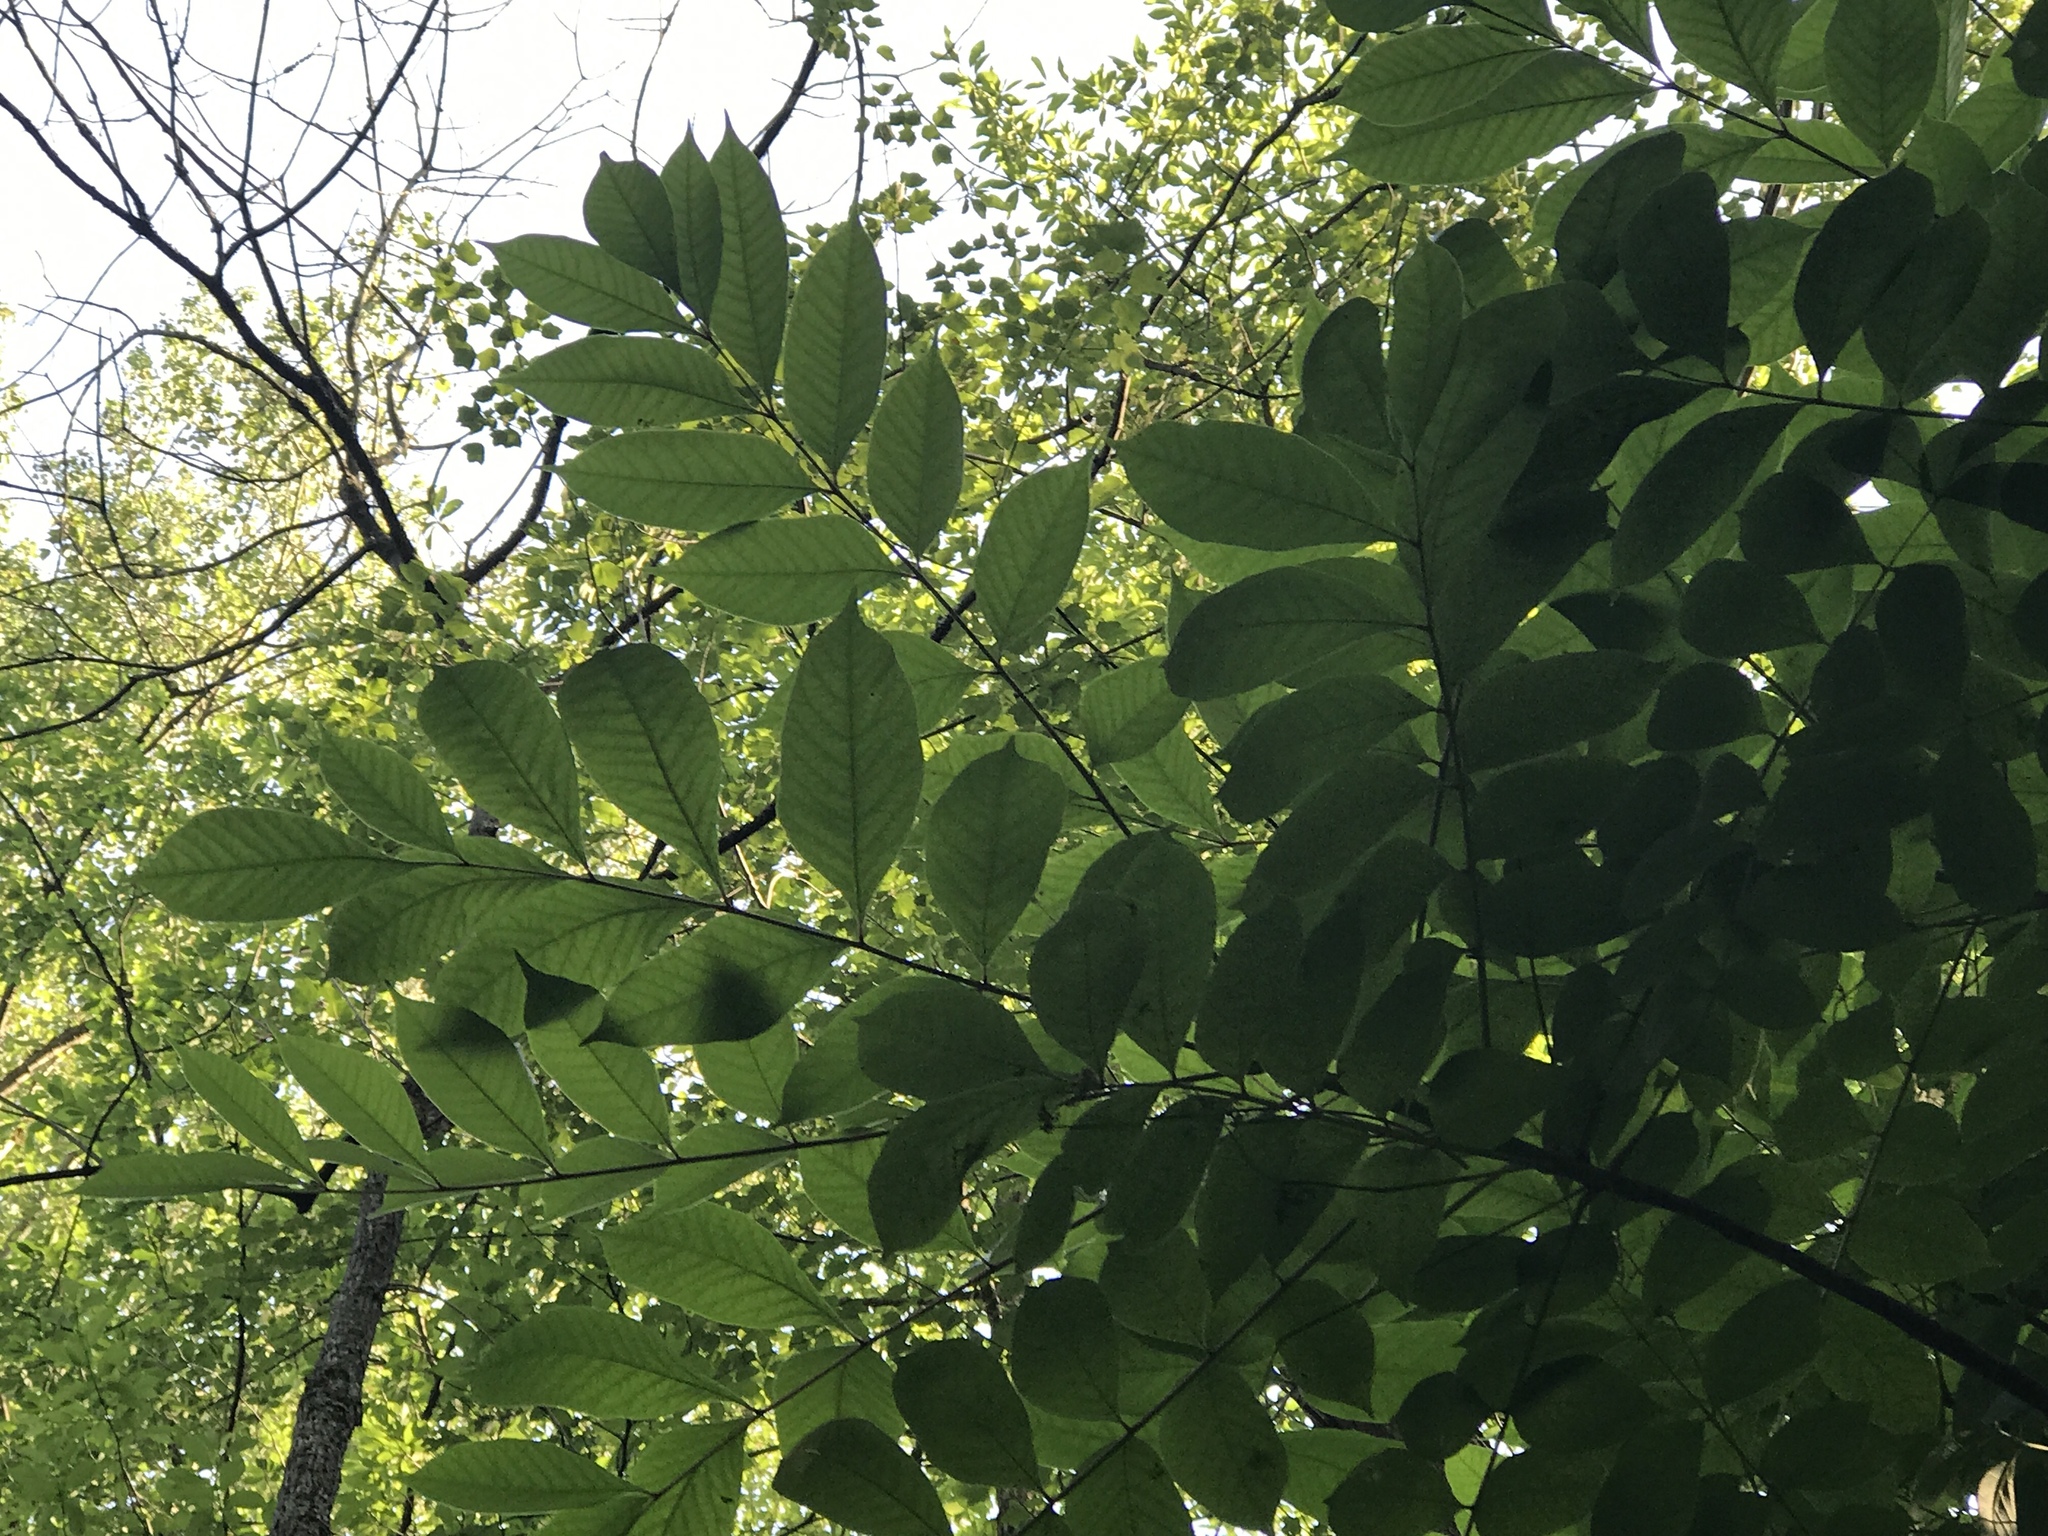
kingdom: Plantae
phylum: Tracheophyta
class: Magnoliopsida
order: Sapindales
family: Anacardiaceae
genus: Toxicodendron
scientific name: Toxicodendron vernix
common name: Poison sumac
